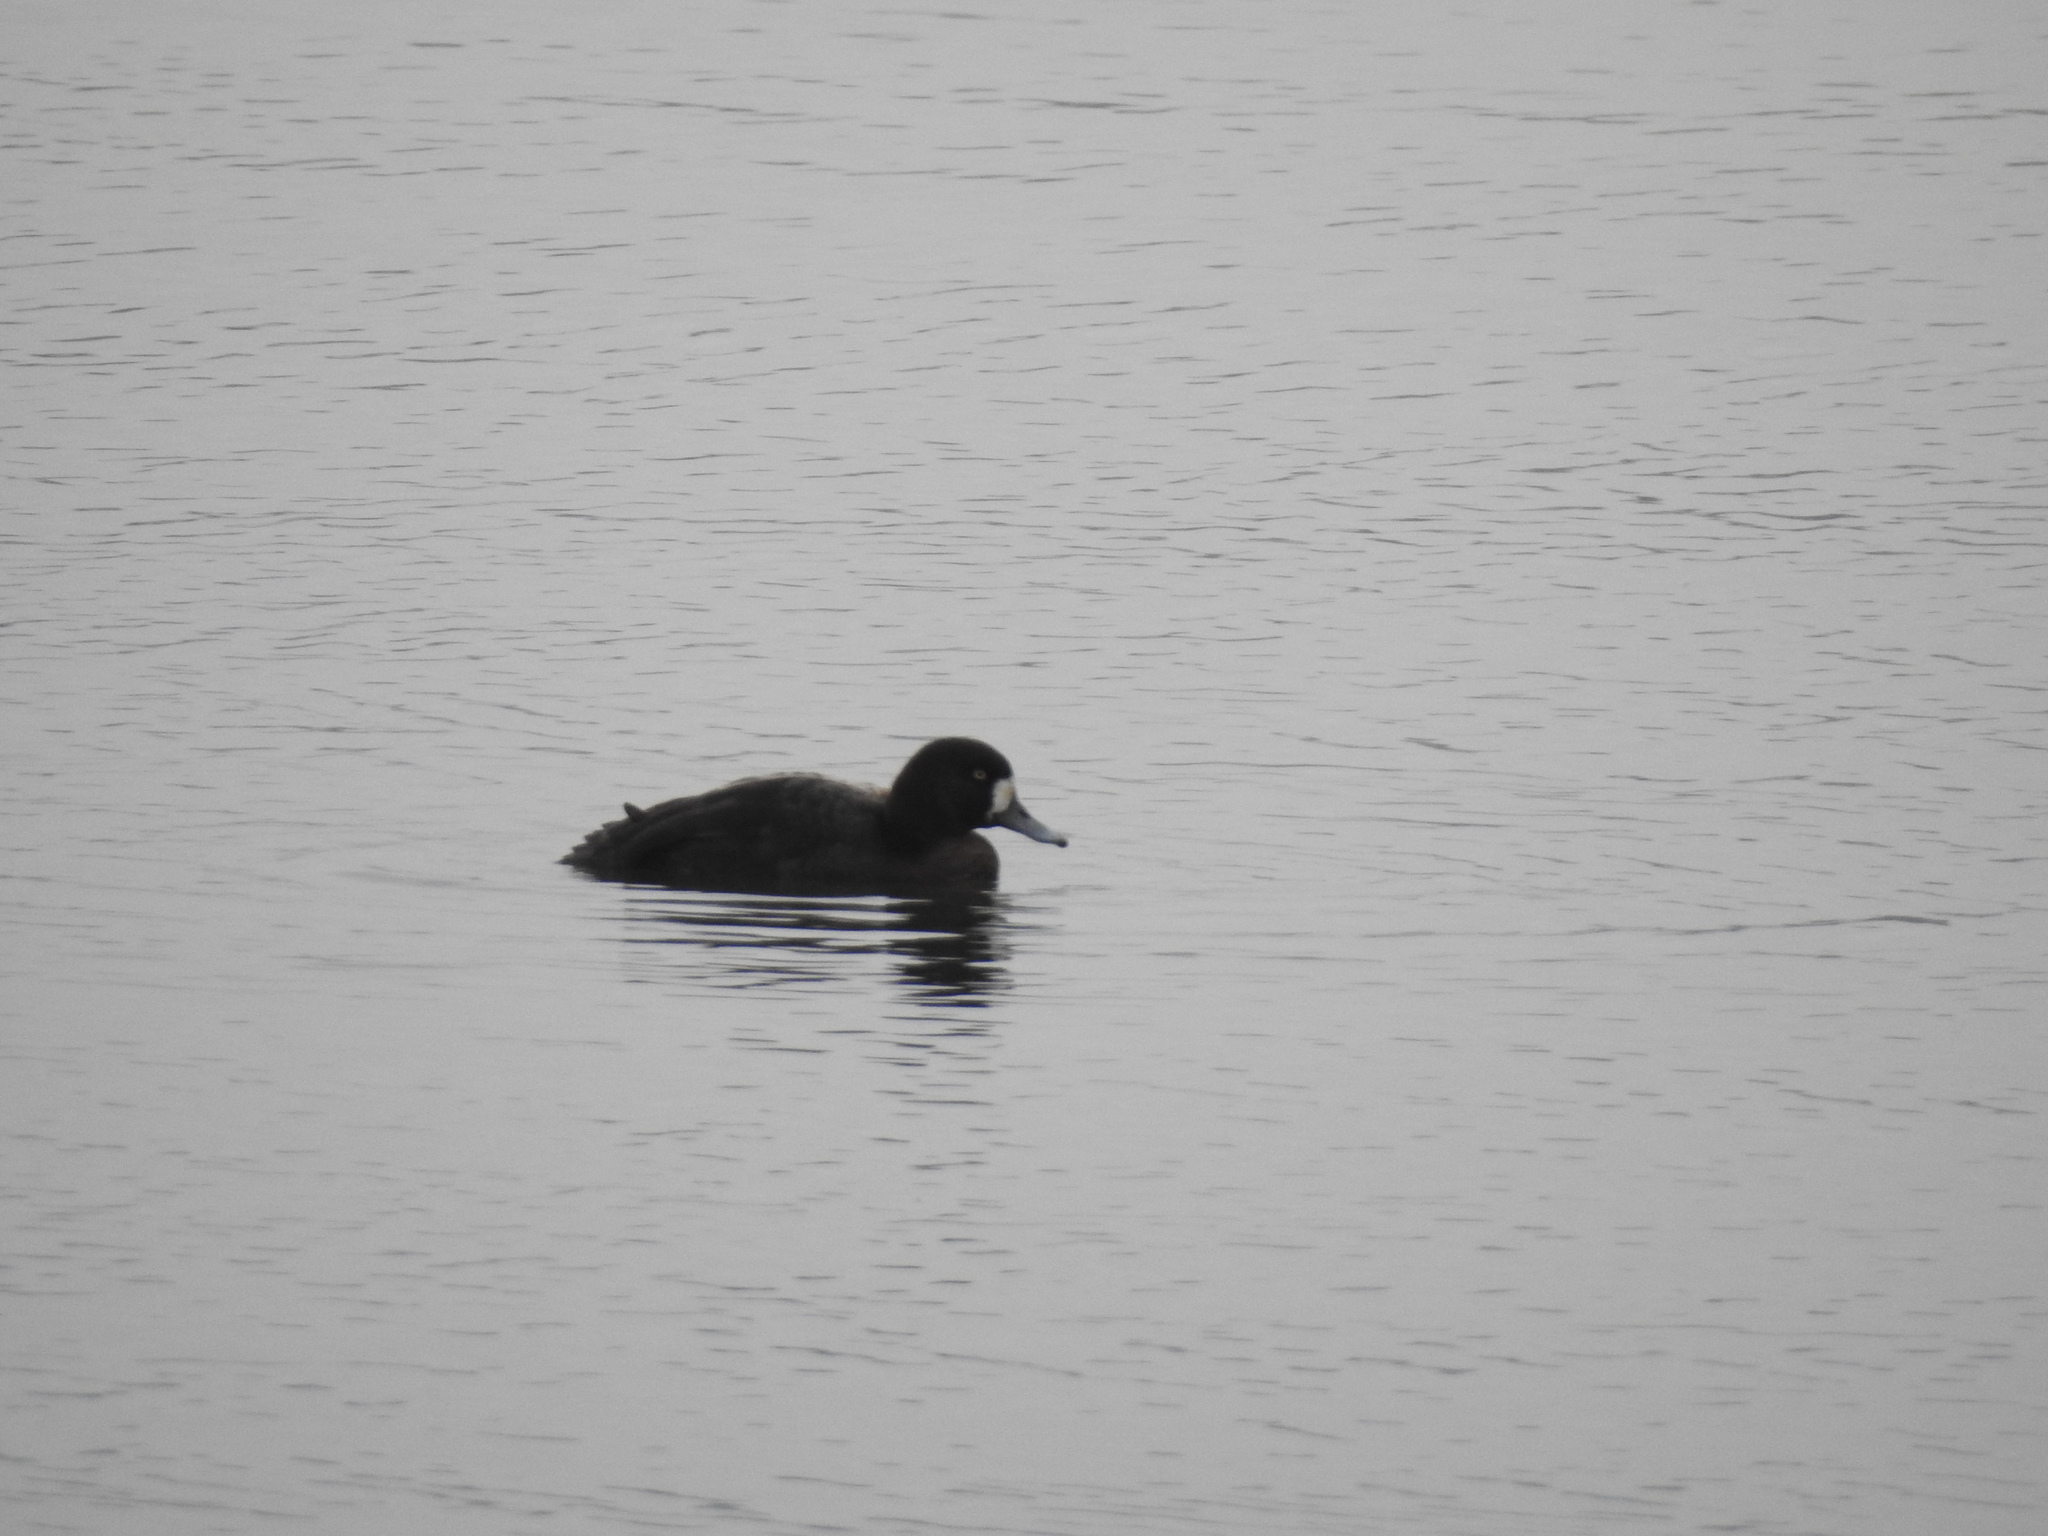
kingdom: Animalia
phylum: Chordata
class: Aves
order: Anseriformes
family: Anatidae
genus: Aythya
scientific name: Aythya marila
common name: Greater scaup
